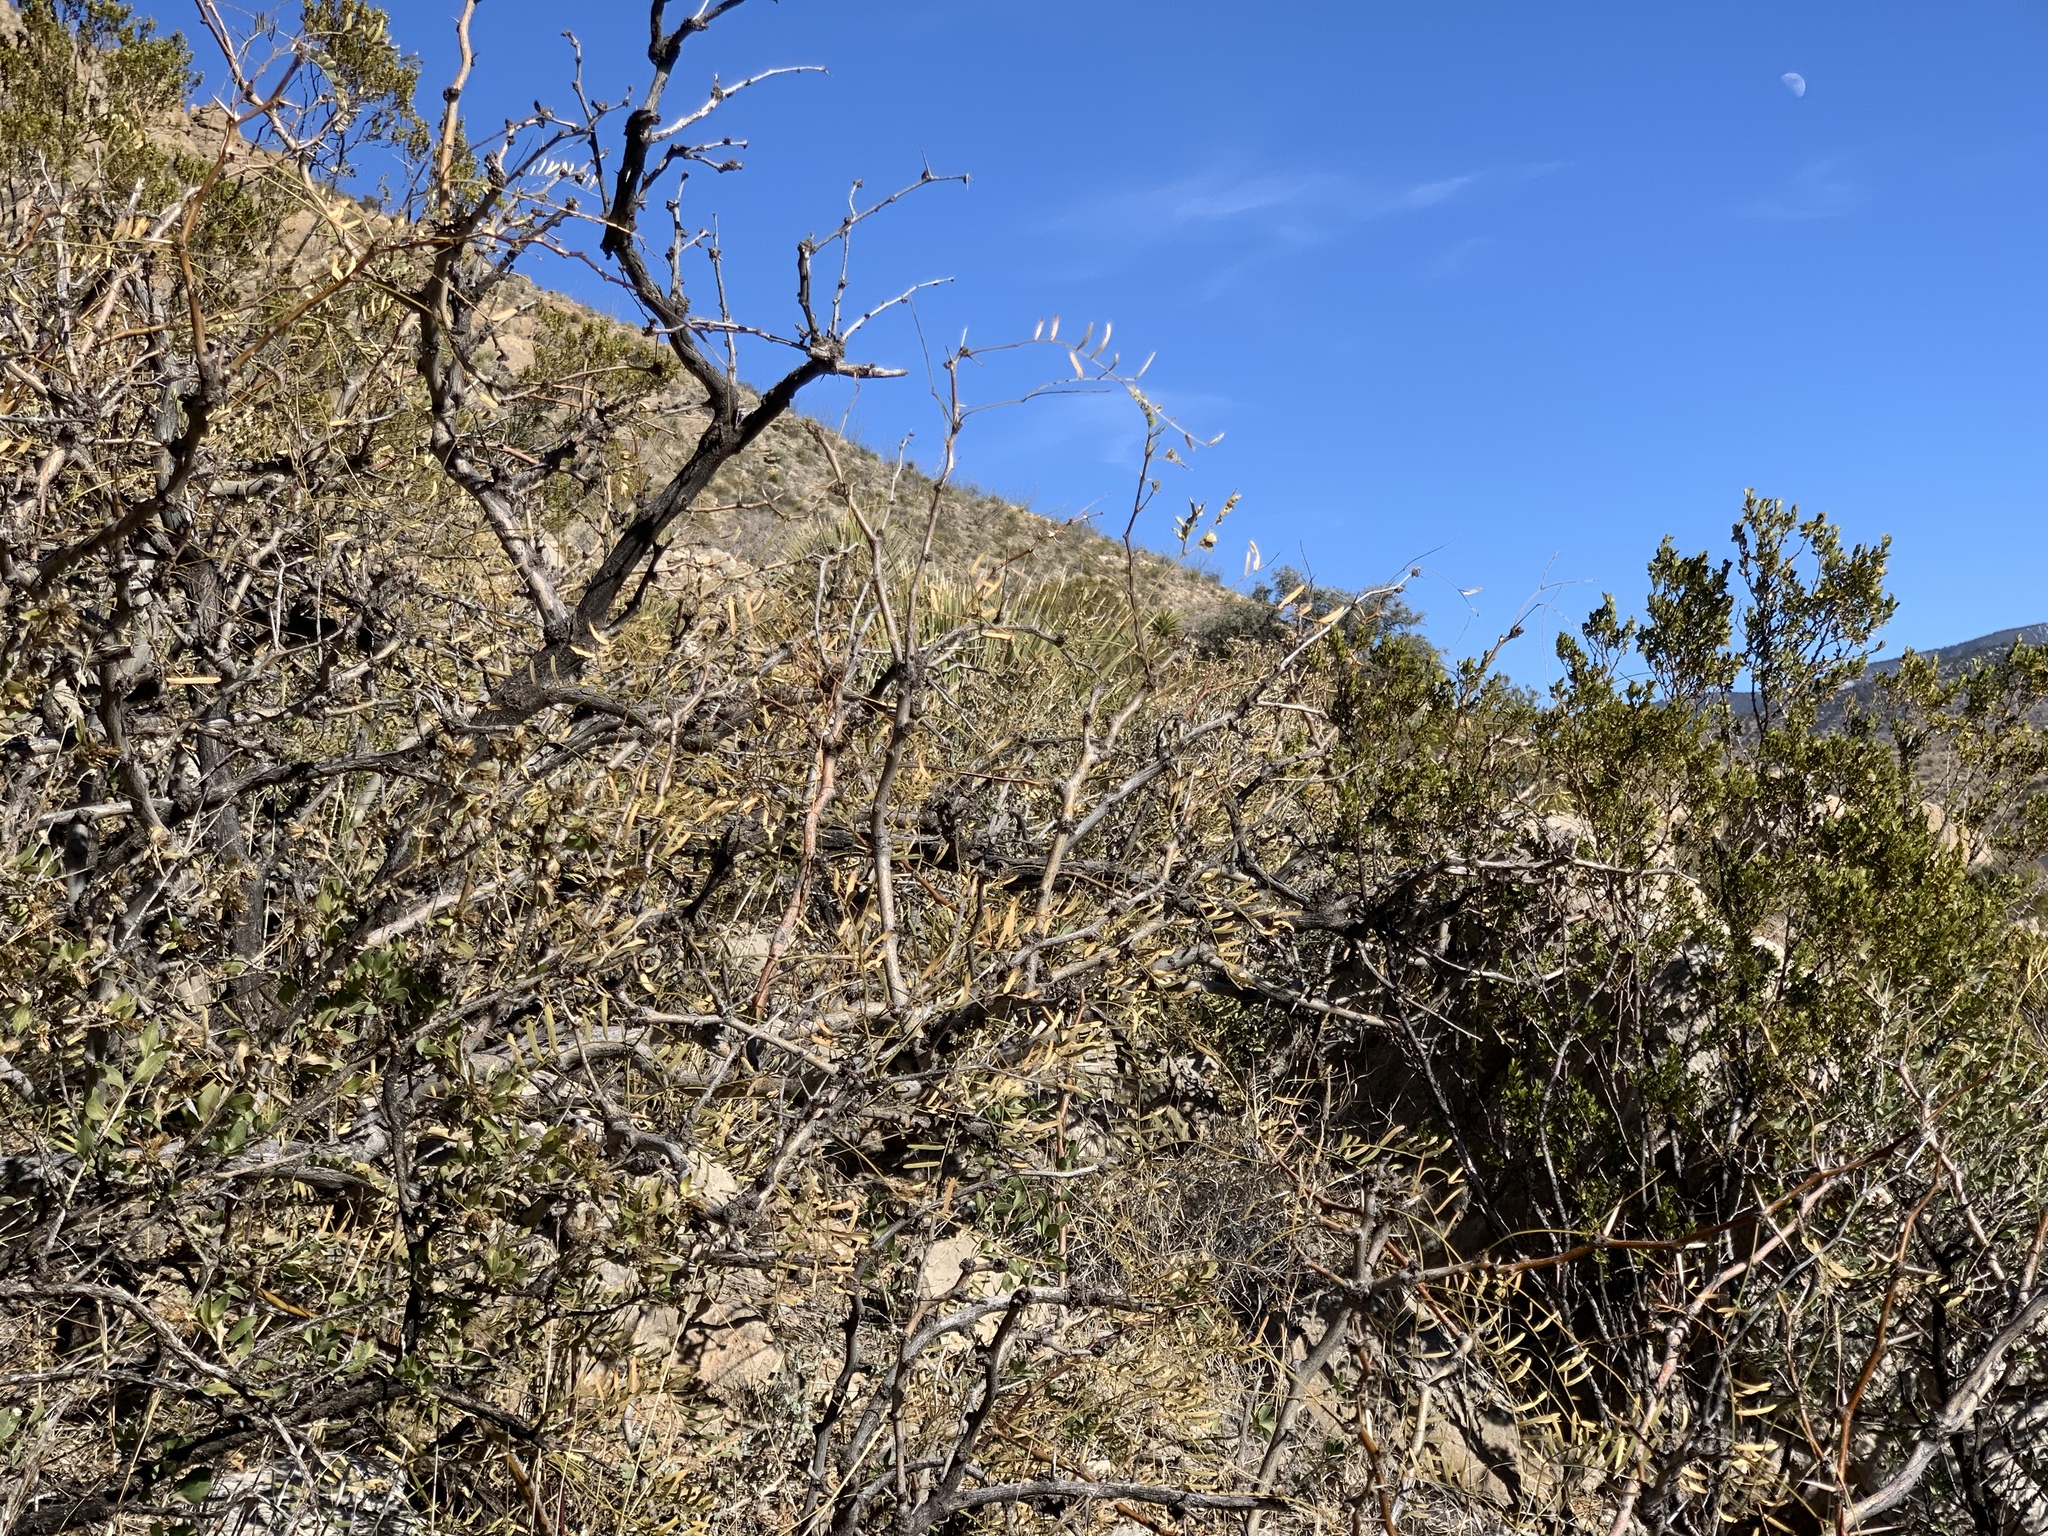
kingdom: Plantae
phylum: Tracheophyta
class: Magnoliopsida
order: Fabales
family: Fabaceae
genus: Prosopis
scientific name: Prosopis glandulosa
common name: Honey mesquite
